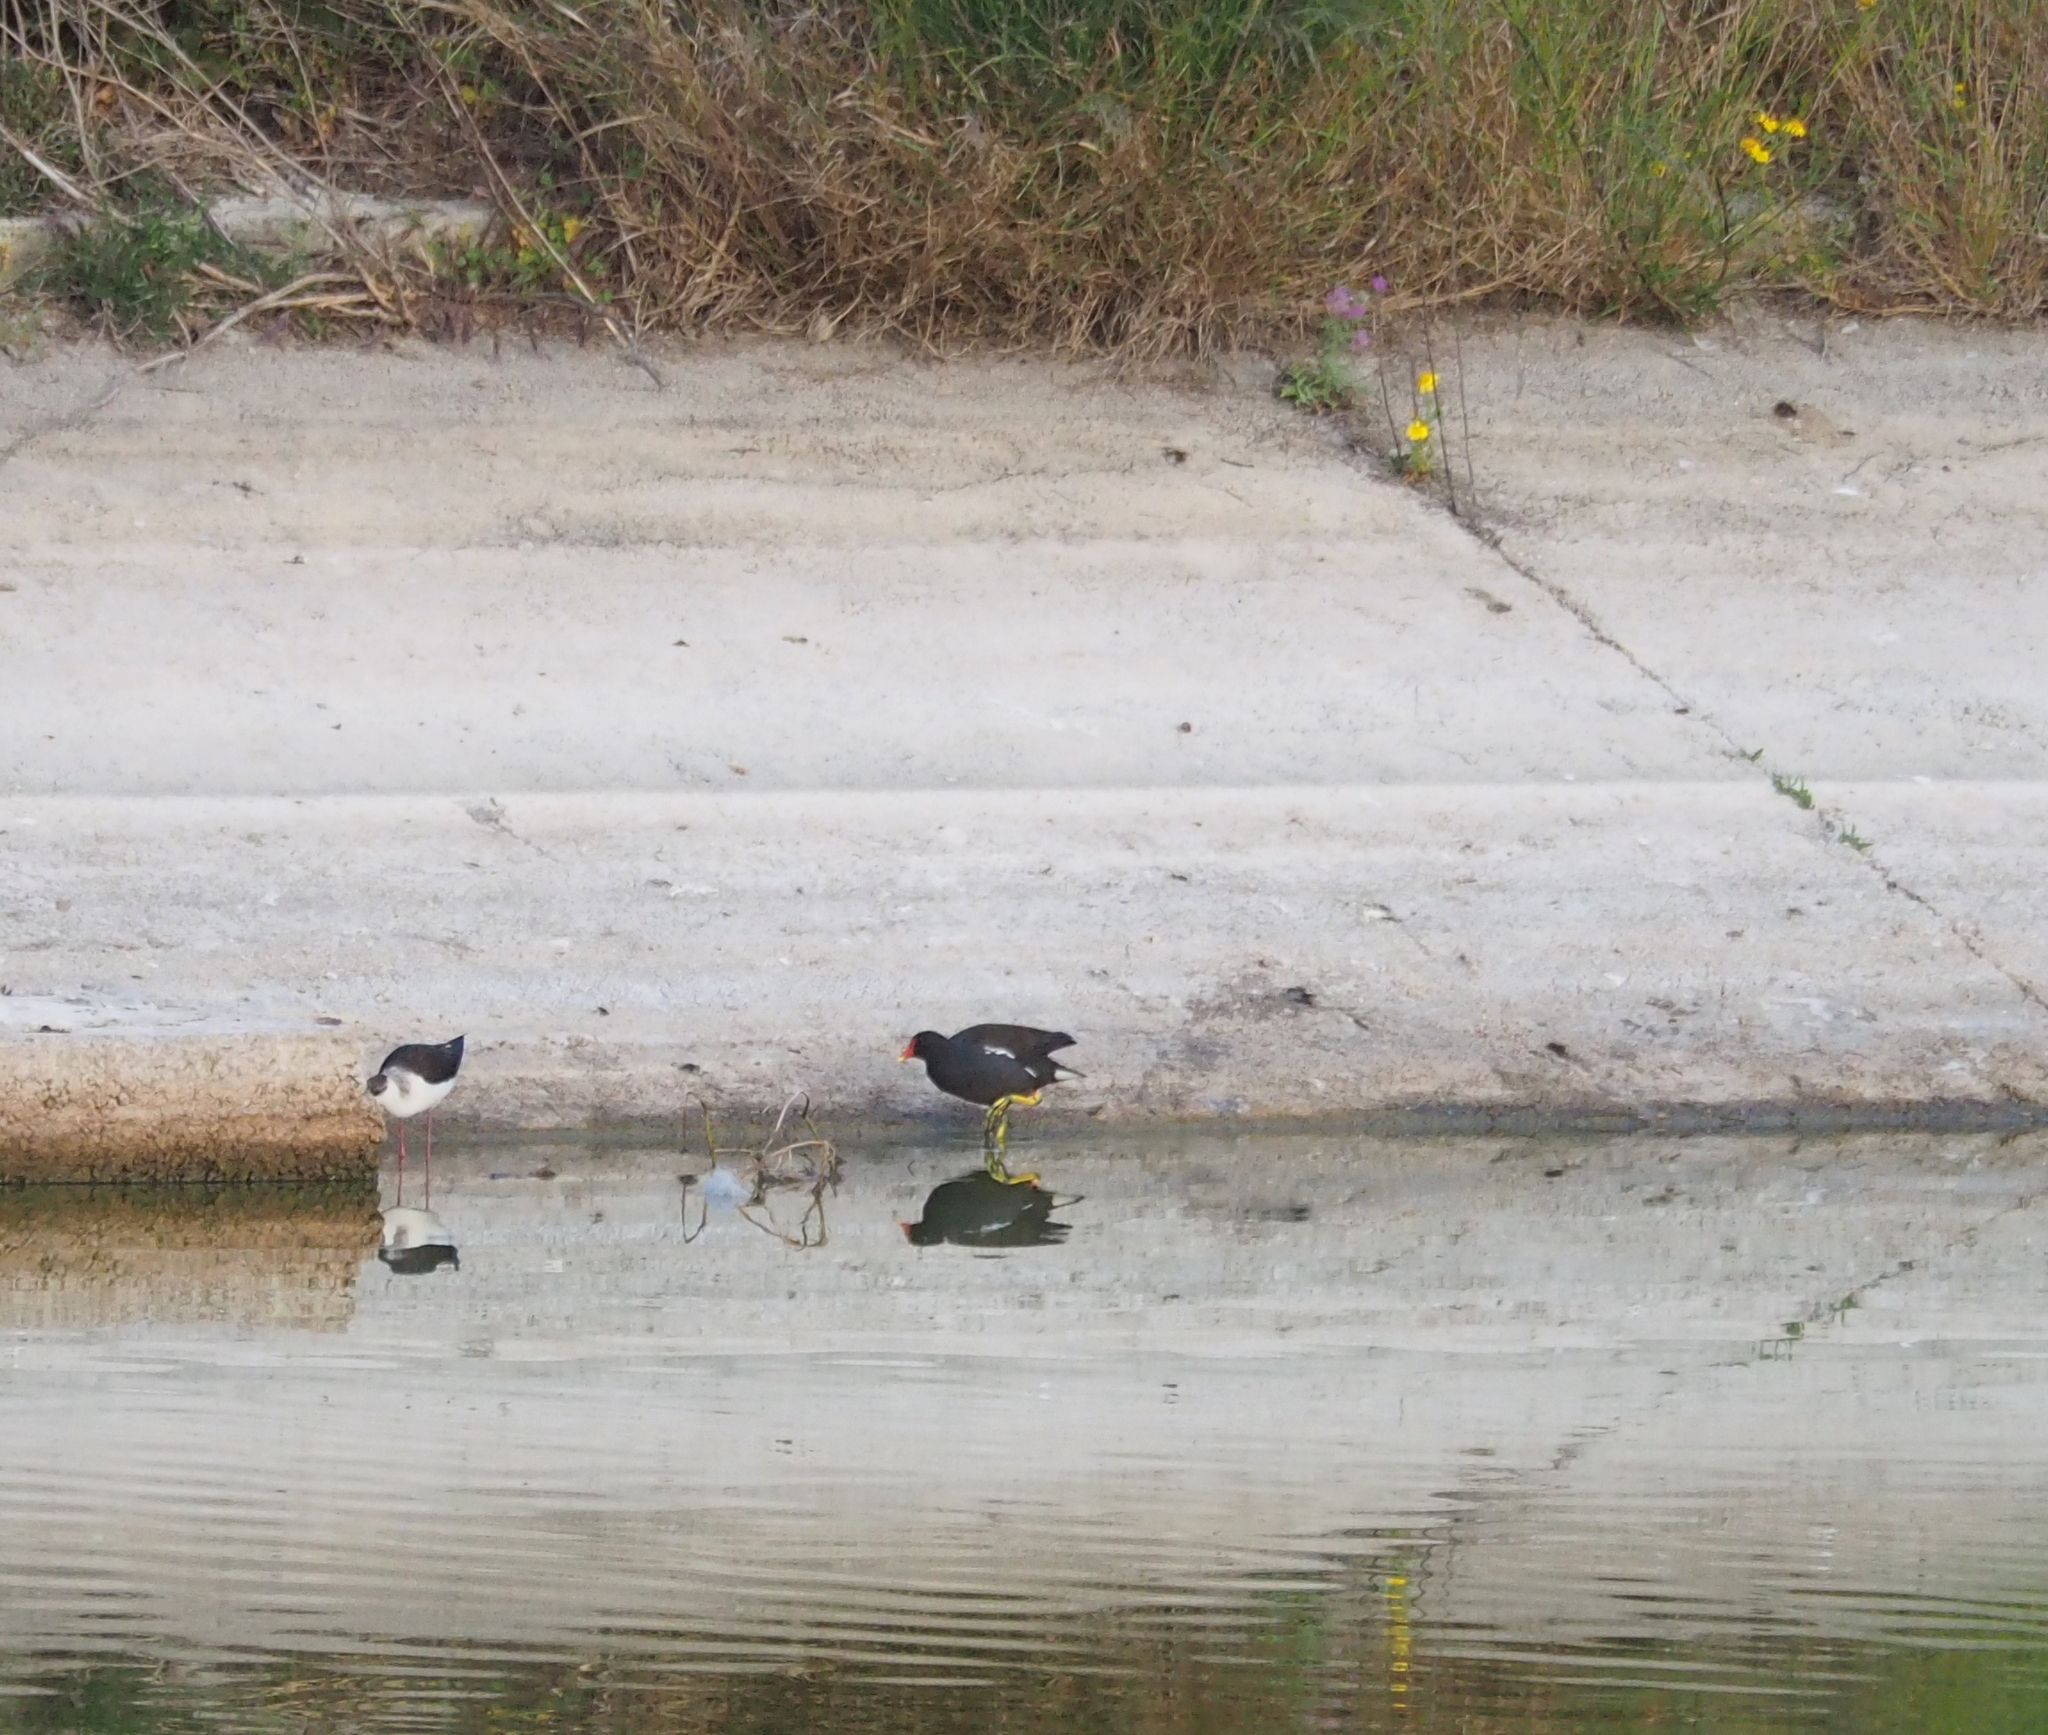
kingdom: Animalia
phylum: Chordata
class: Aves
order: Gruiformes
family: Rallidae
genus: Gallinula
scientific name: Gallinula chloropus
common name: Common moorhen
